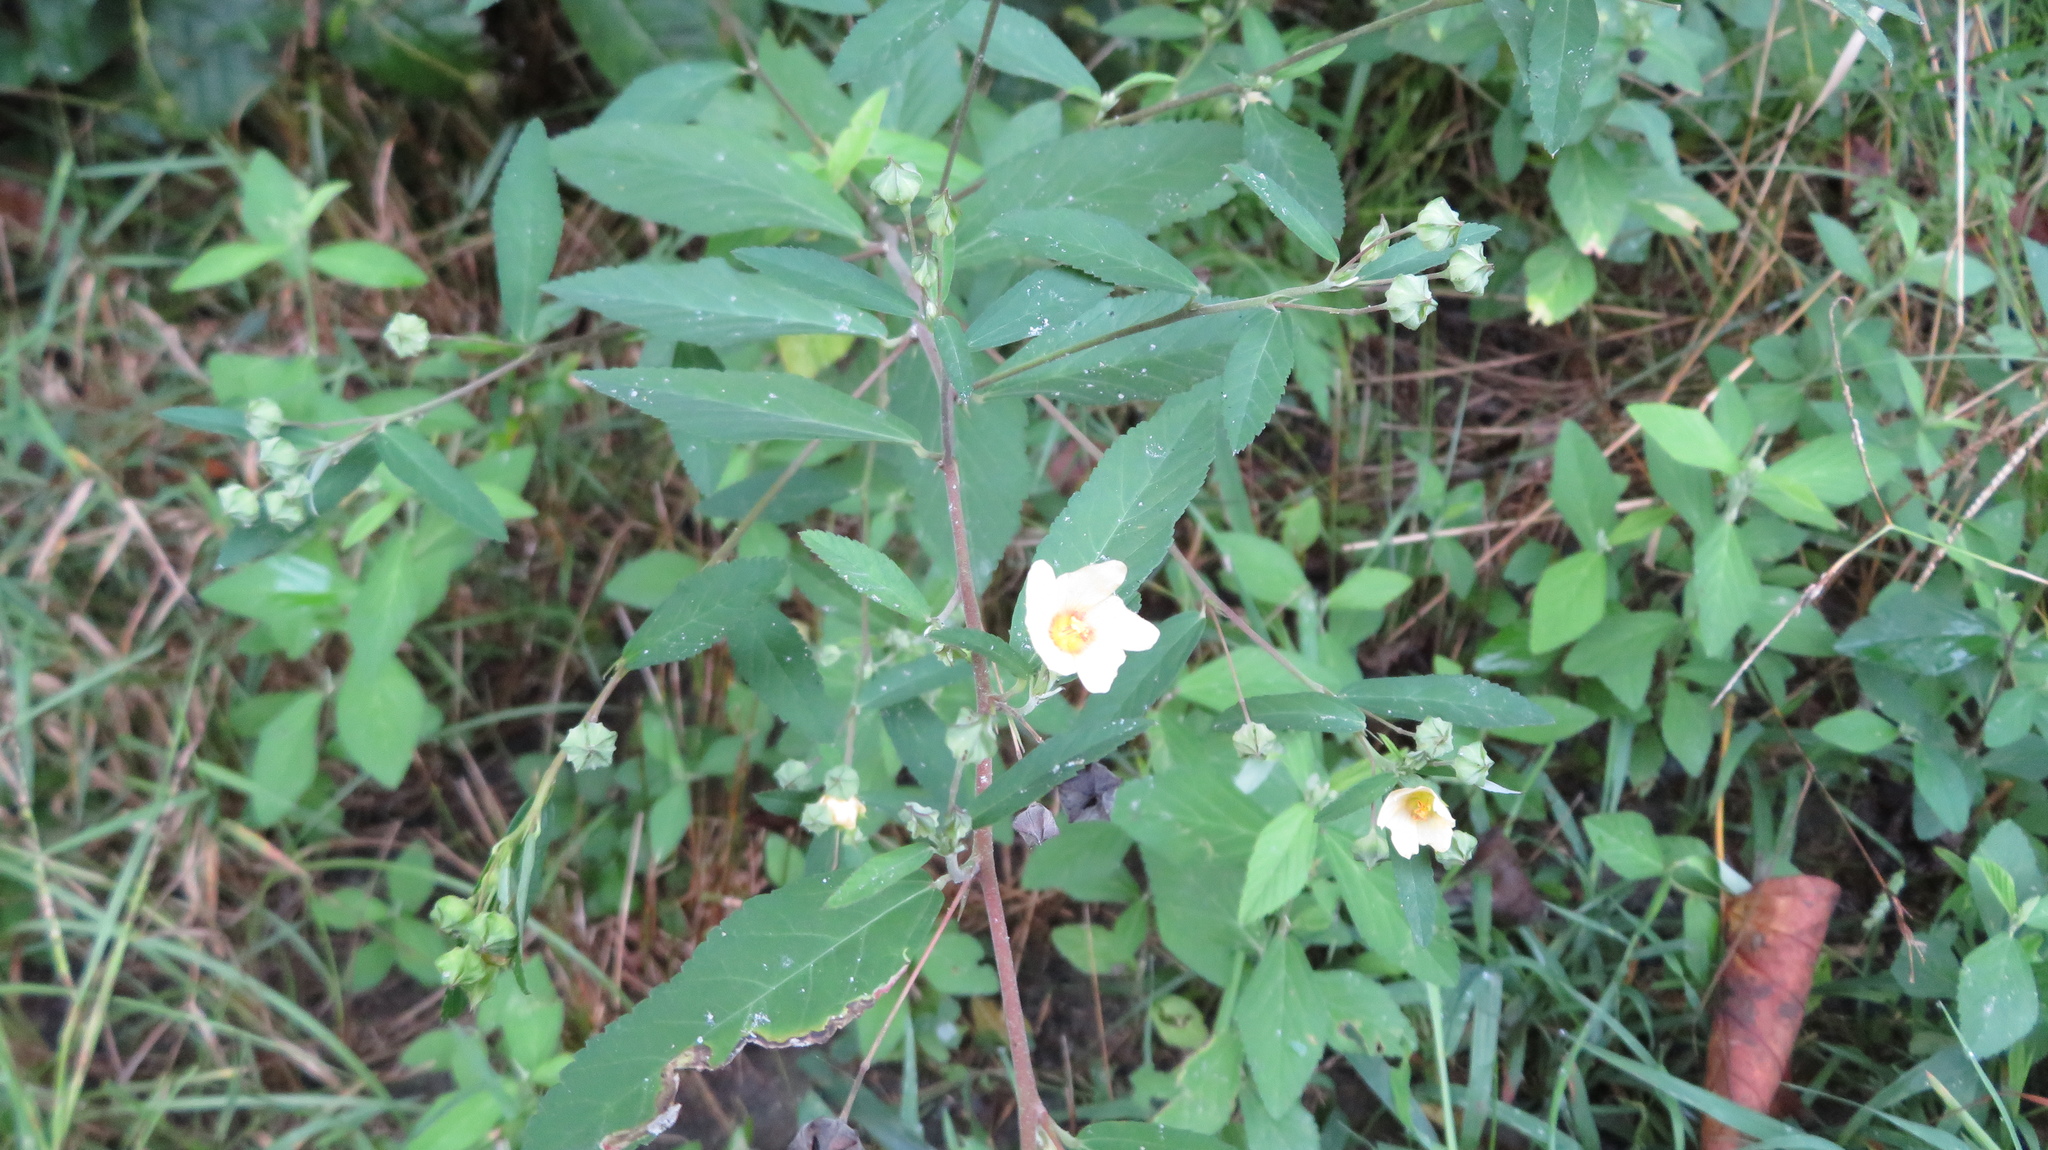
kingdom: Plantae
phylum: Tracheophyta
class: Magnoliopsida
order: Malvales
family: Malvaceae
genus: Sida
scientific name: Sida rhombifolia
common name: Queensland-hemp
